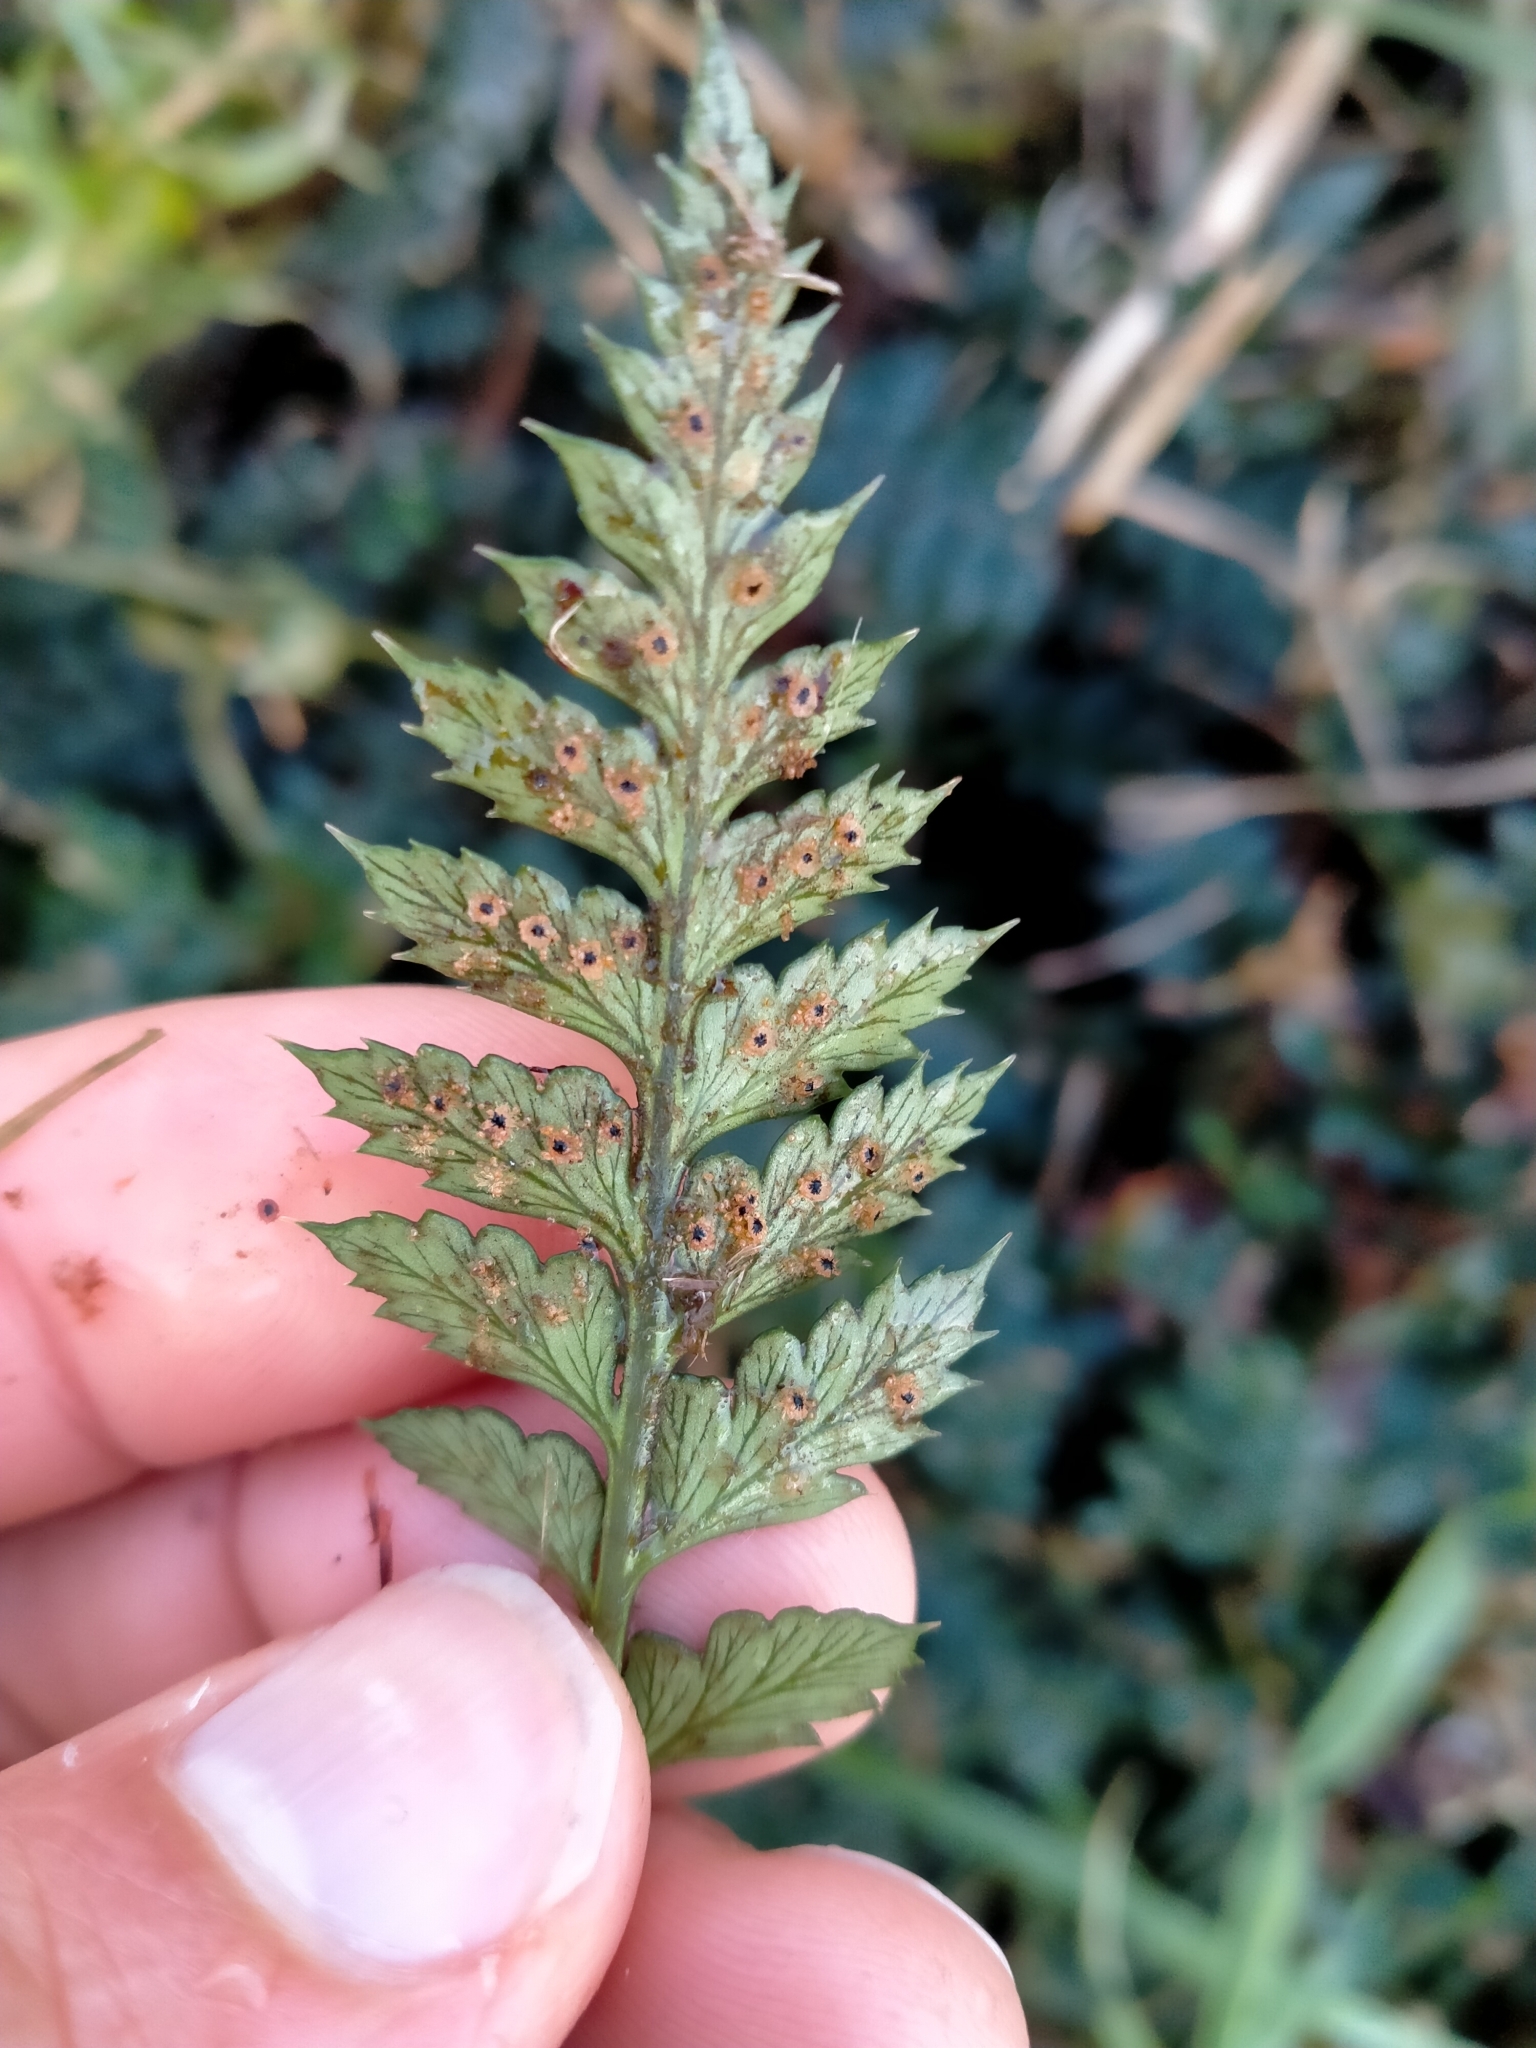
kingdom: Plantae
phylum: Tracheophyta
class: Polypodiopsida
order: Polypodiales
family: Dryopteridaceae
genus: Polystichum
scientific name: Polystichum oculatum
